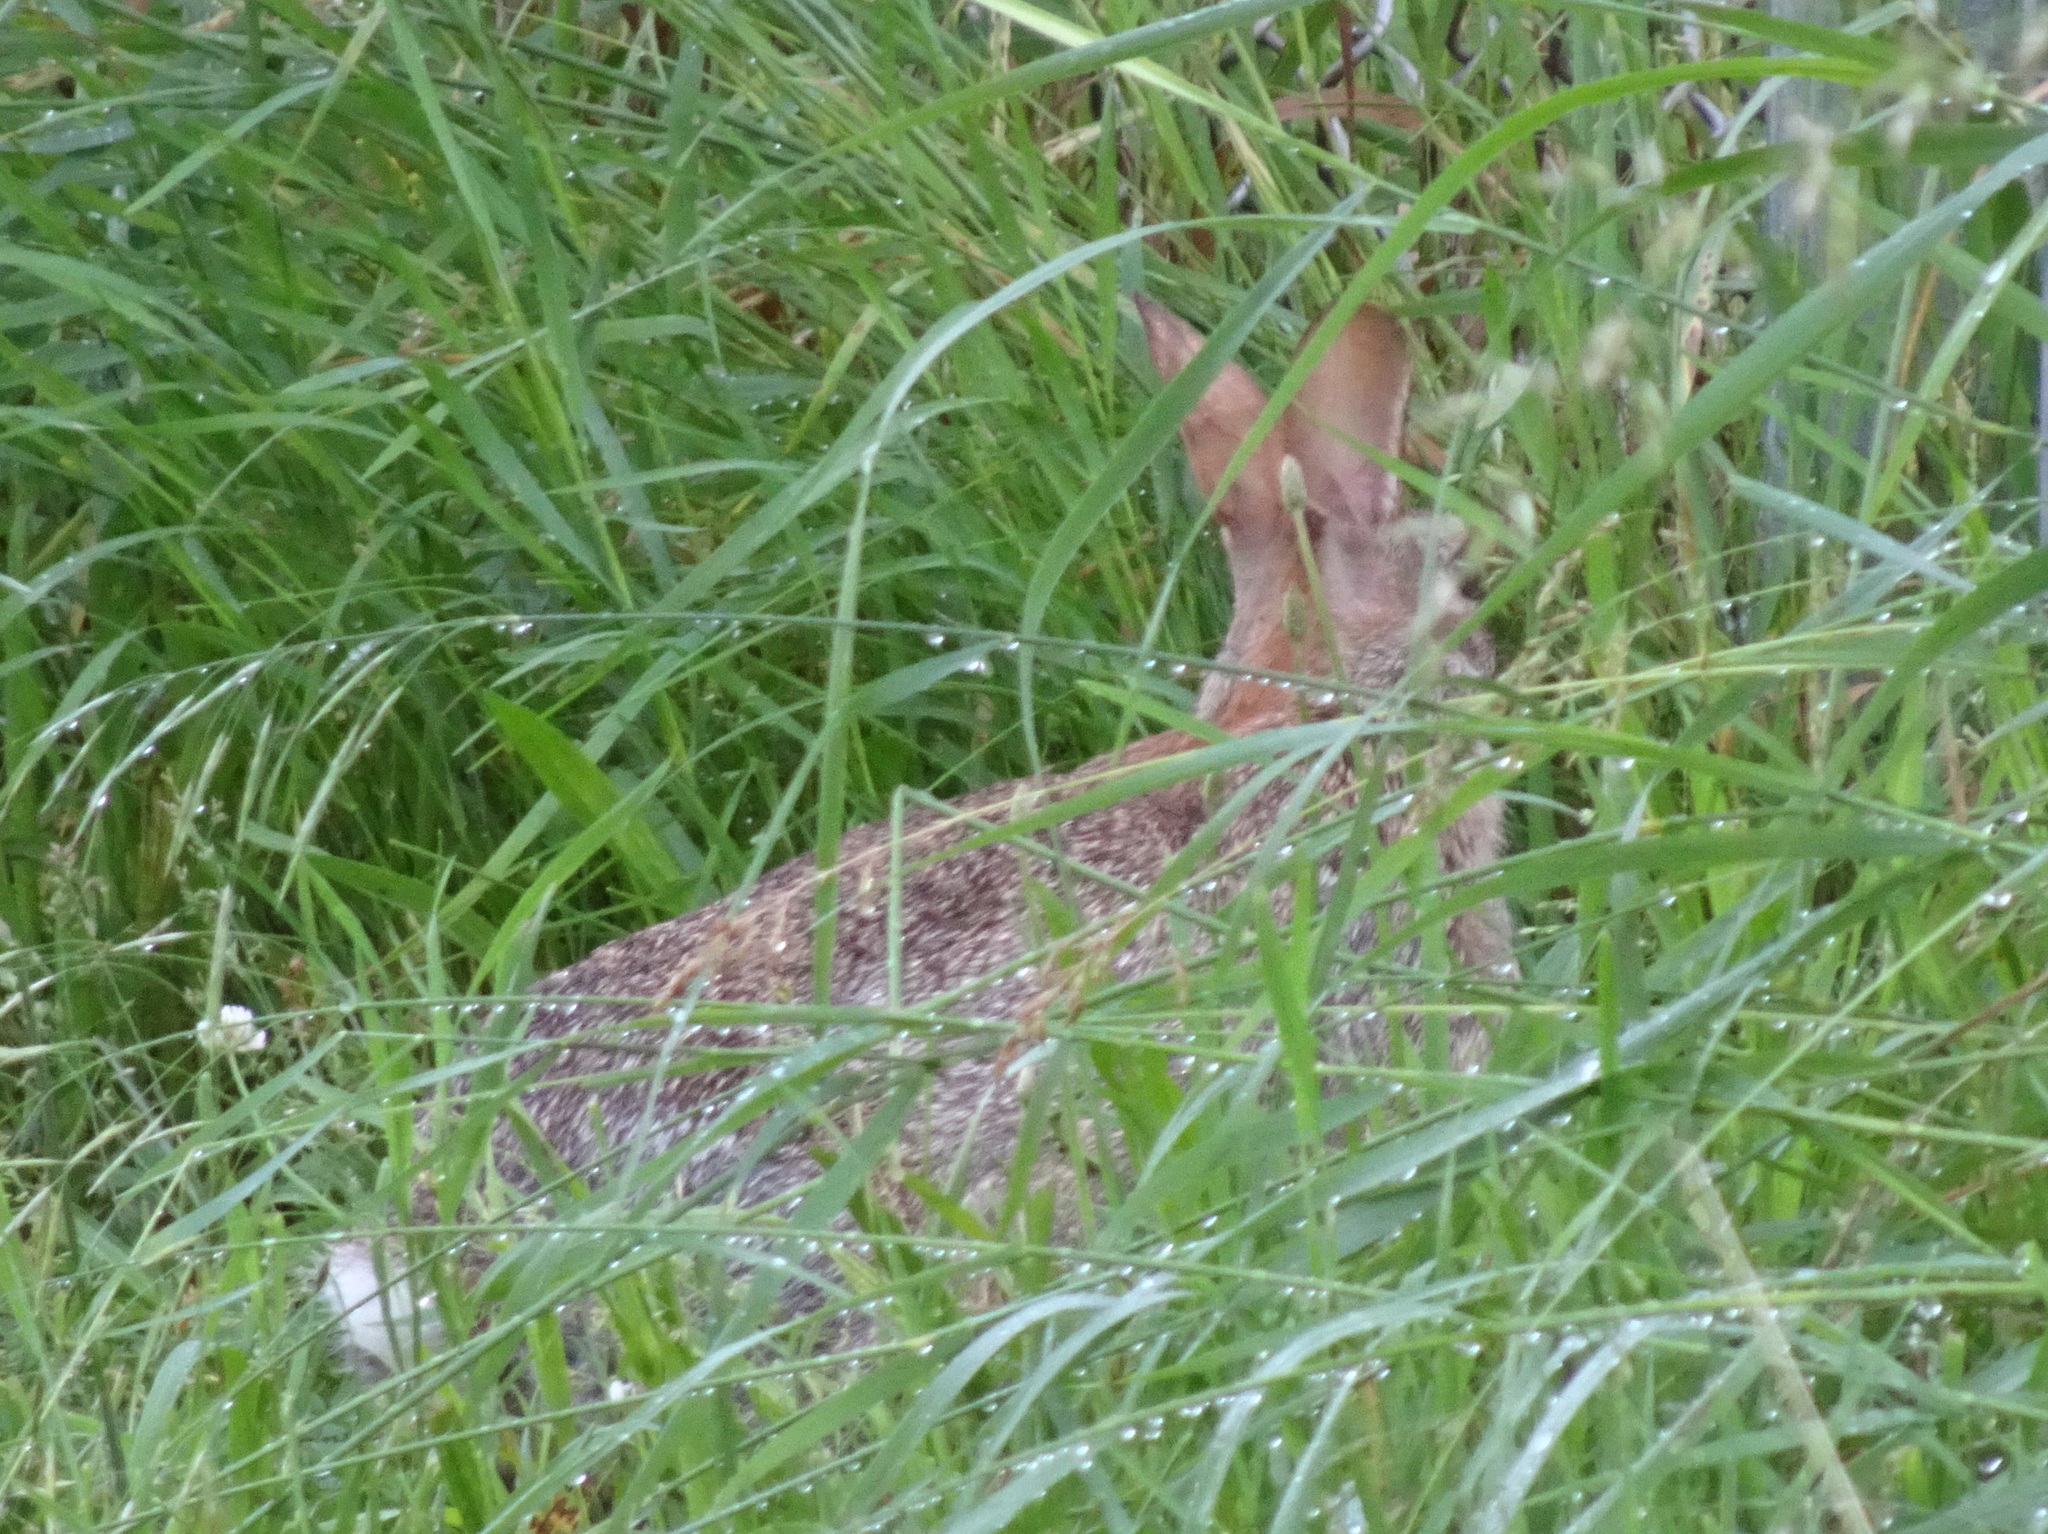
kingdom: Animalia
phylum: Chordata
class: Mammalia
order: Lagomorpha
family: Leporidae
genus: Sylvilagus
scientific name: Sylvilagus floridanus
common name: Eastern cottontail
